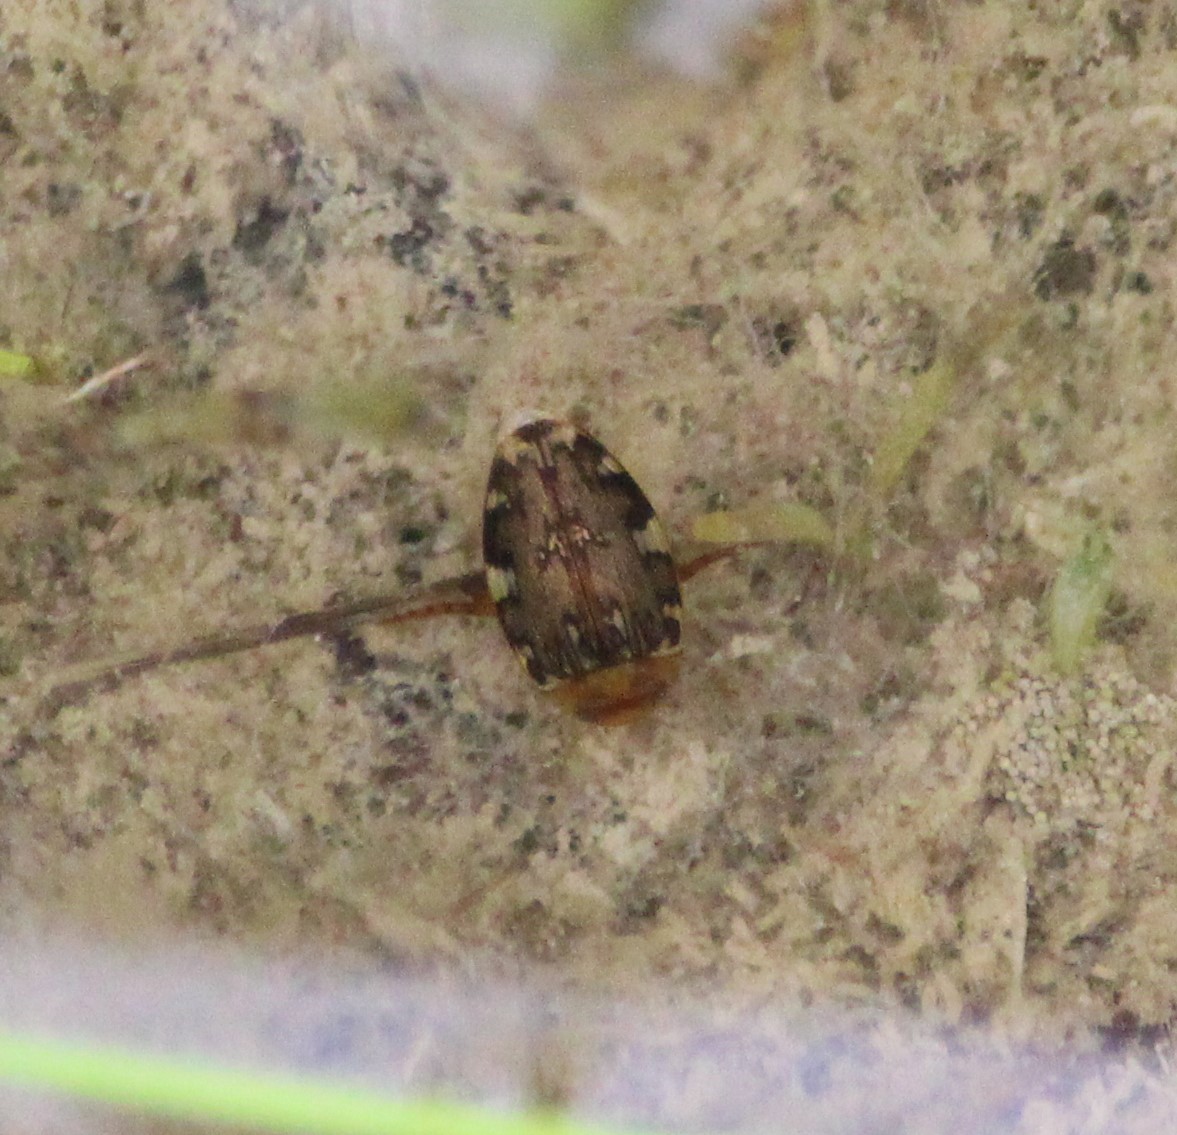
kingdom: Animalia
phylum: Arthropoda
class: Insecta
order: Coleoptera
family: Dytiscidae
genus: Laccophilus
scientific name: Laccophilus maculosus
